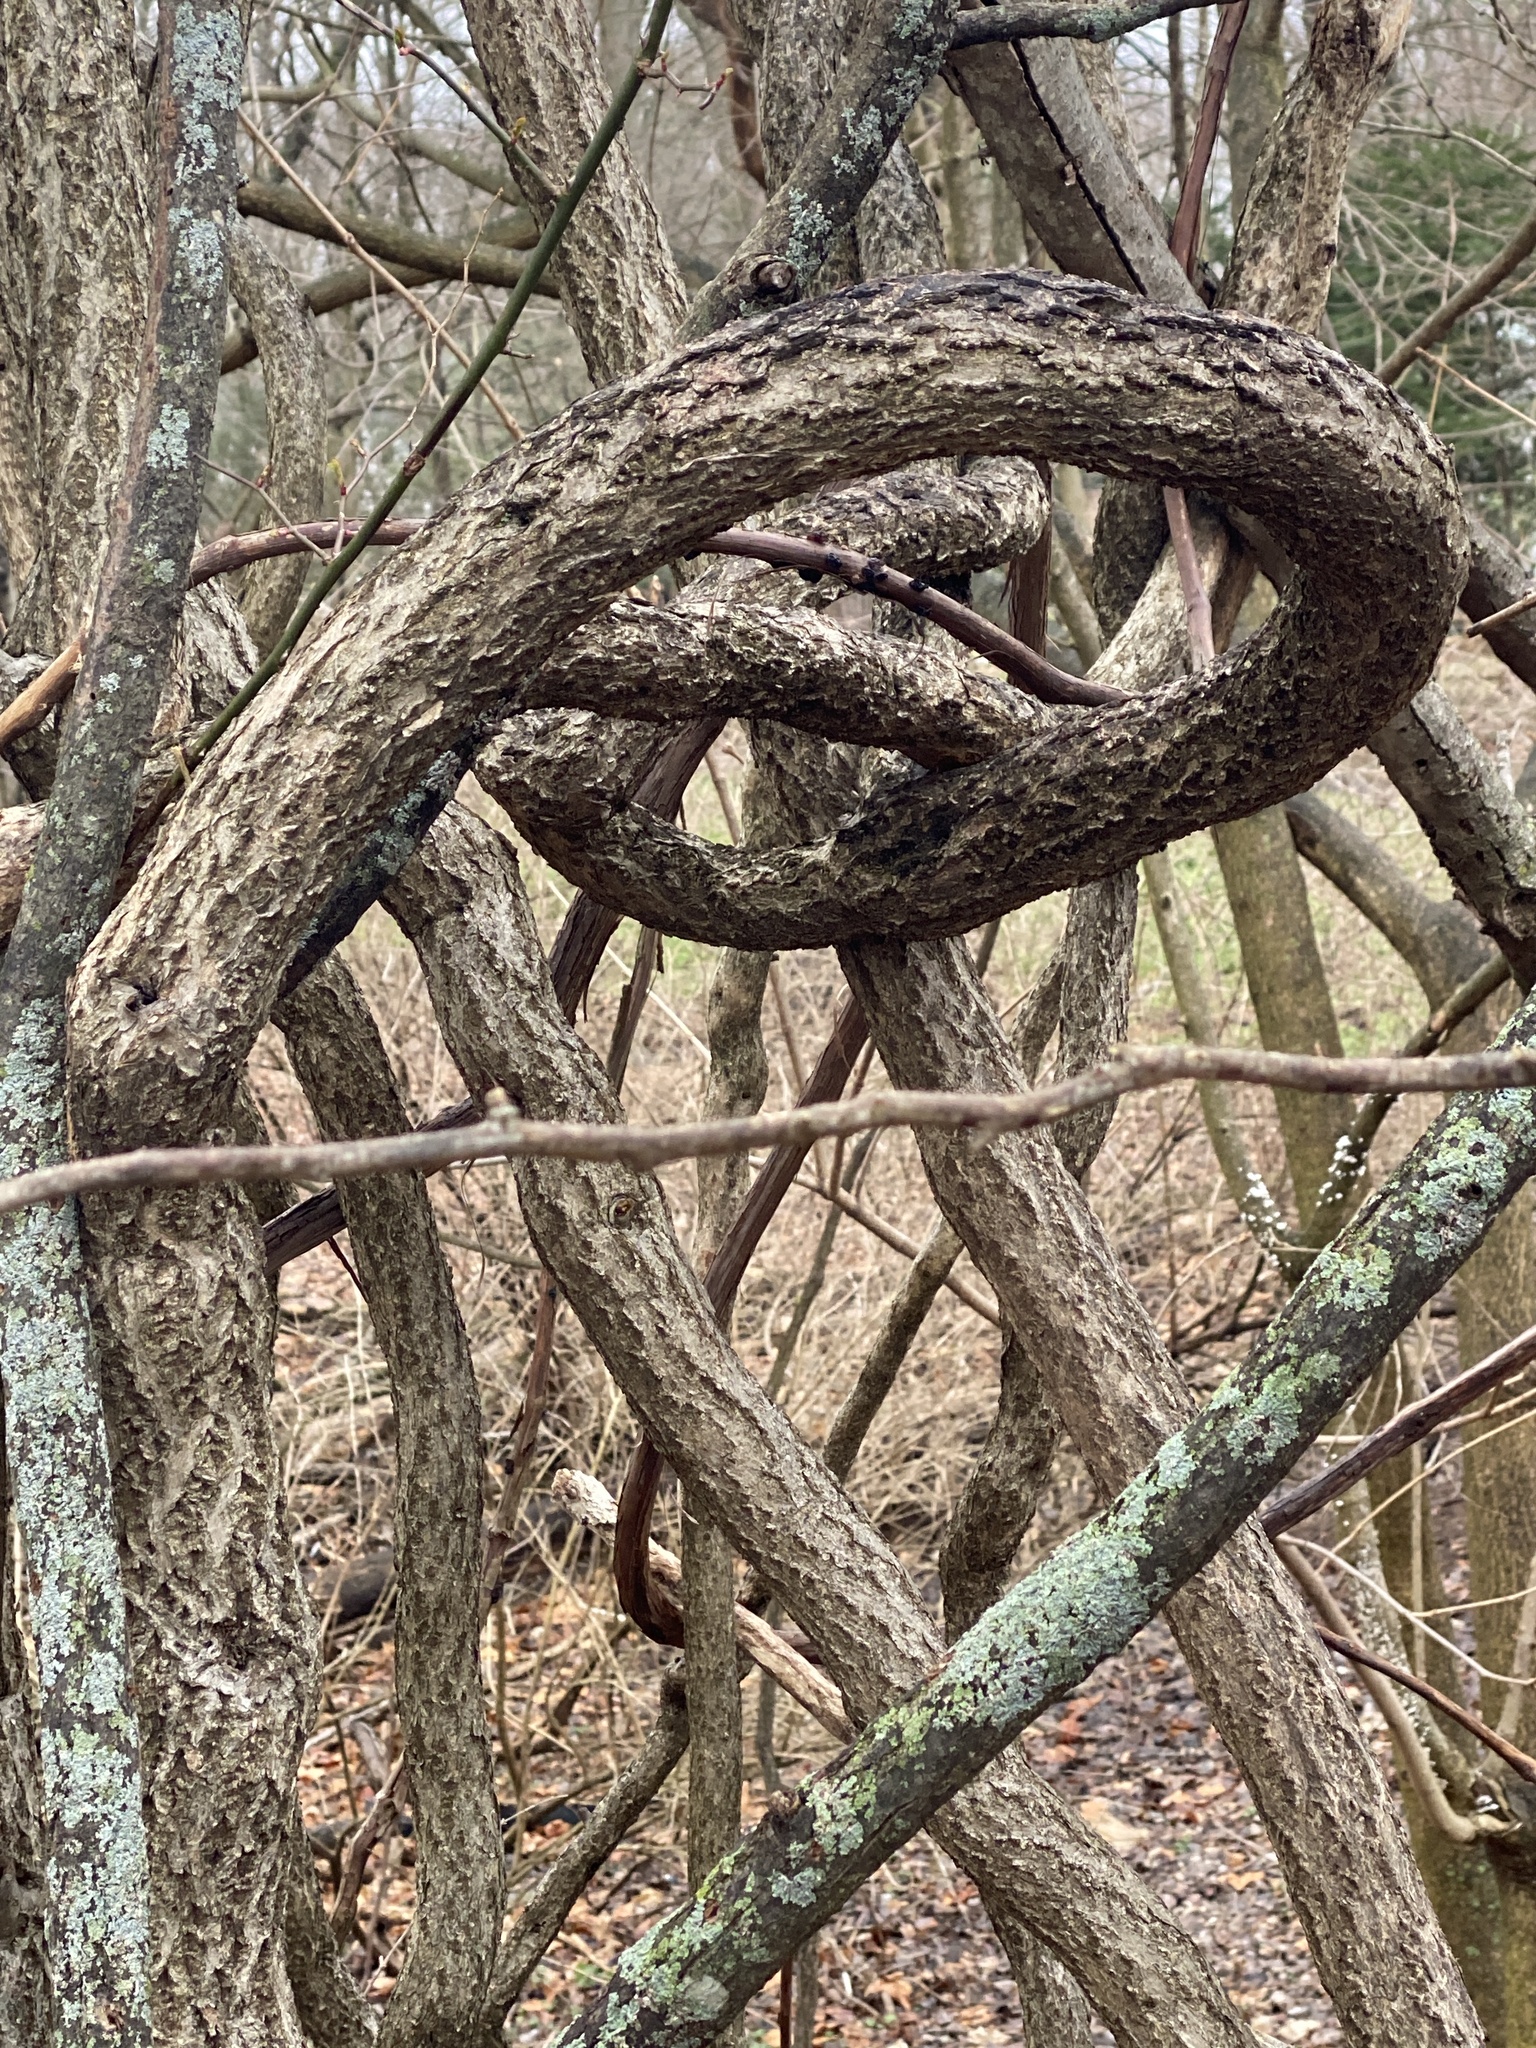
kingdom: Plantae
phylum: Tracheophyta
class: Magnoliopsida
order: Celastrales
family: Celastraceae
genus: Celastrus
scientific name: Celastrus orbiculatus
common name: Oriental bittersweet
